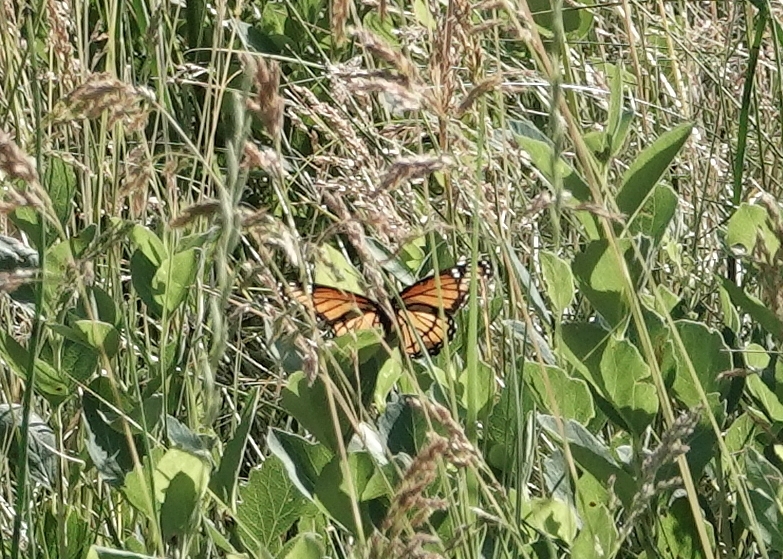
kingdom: Animalia
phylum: Arthropoda
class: Insecta
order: Lepidoptera
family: Nymphalidae
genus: Limenitis
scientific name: Limenitis archippus
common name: Viceroy
